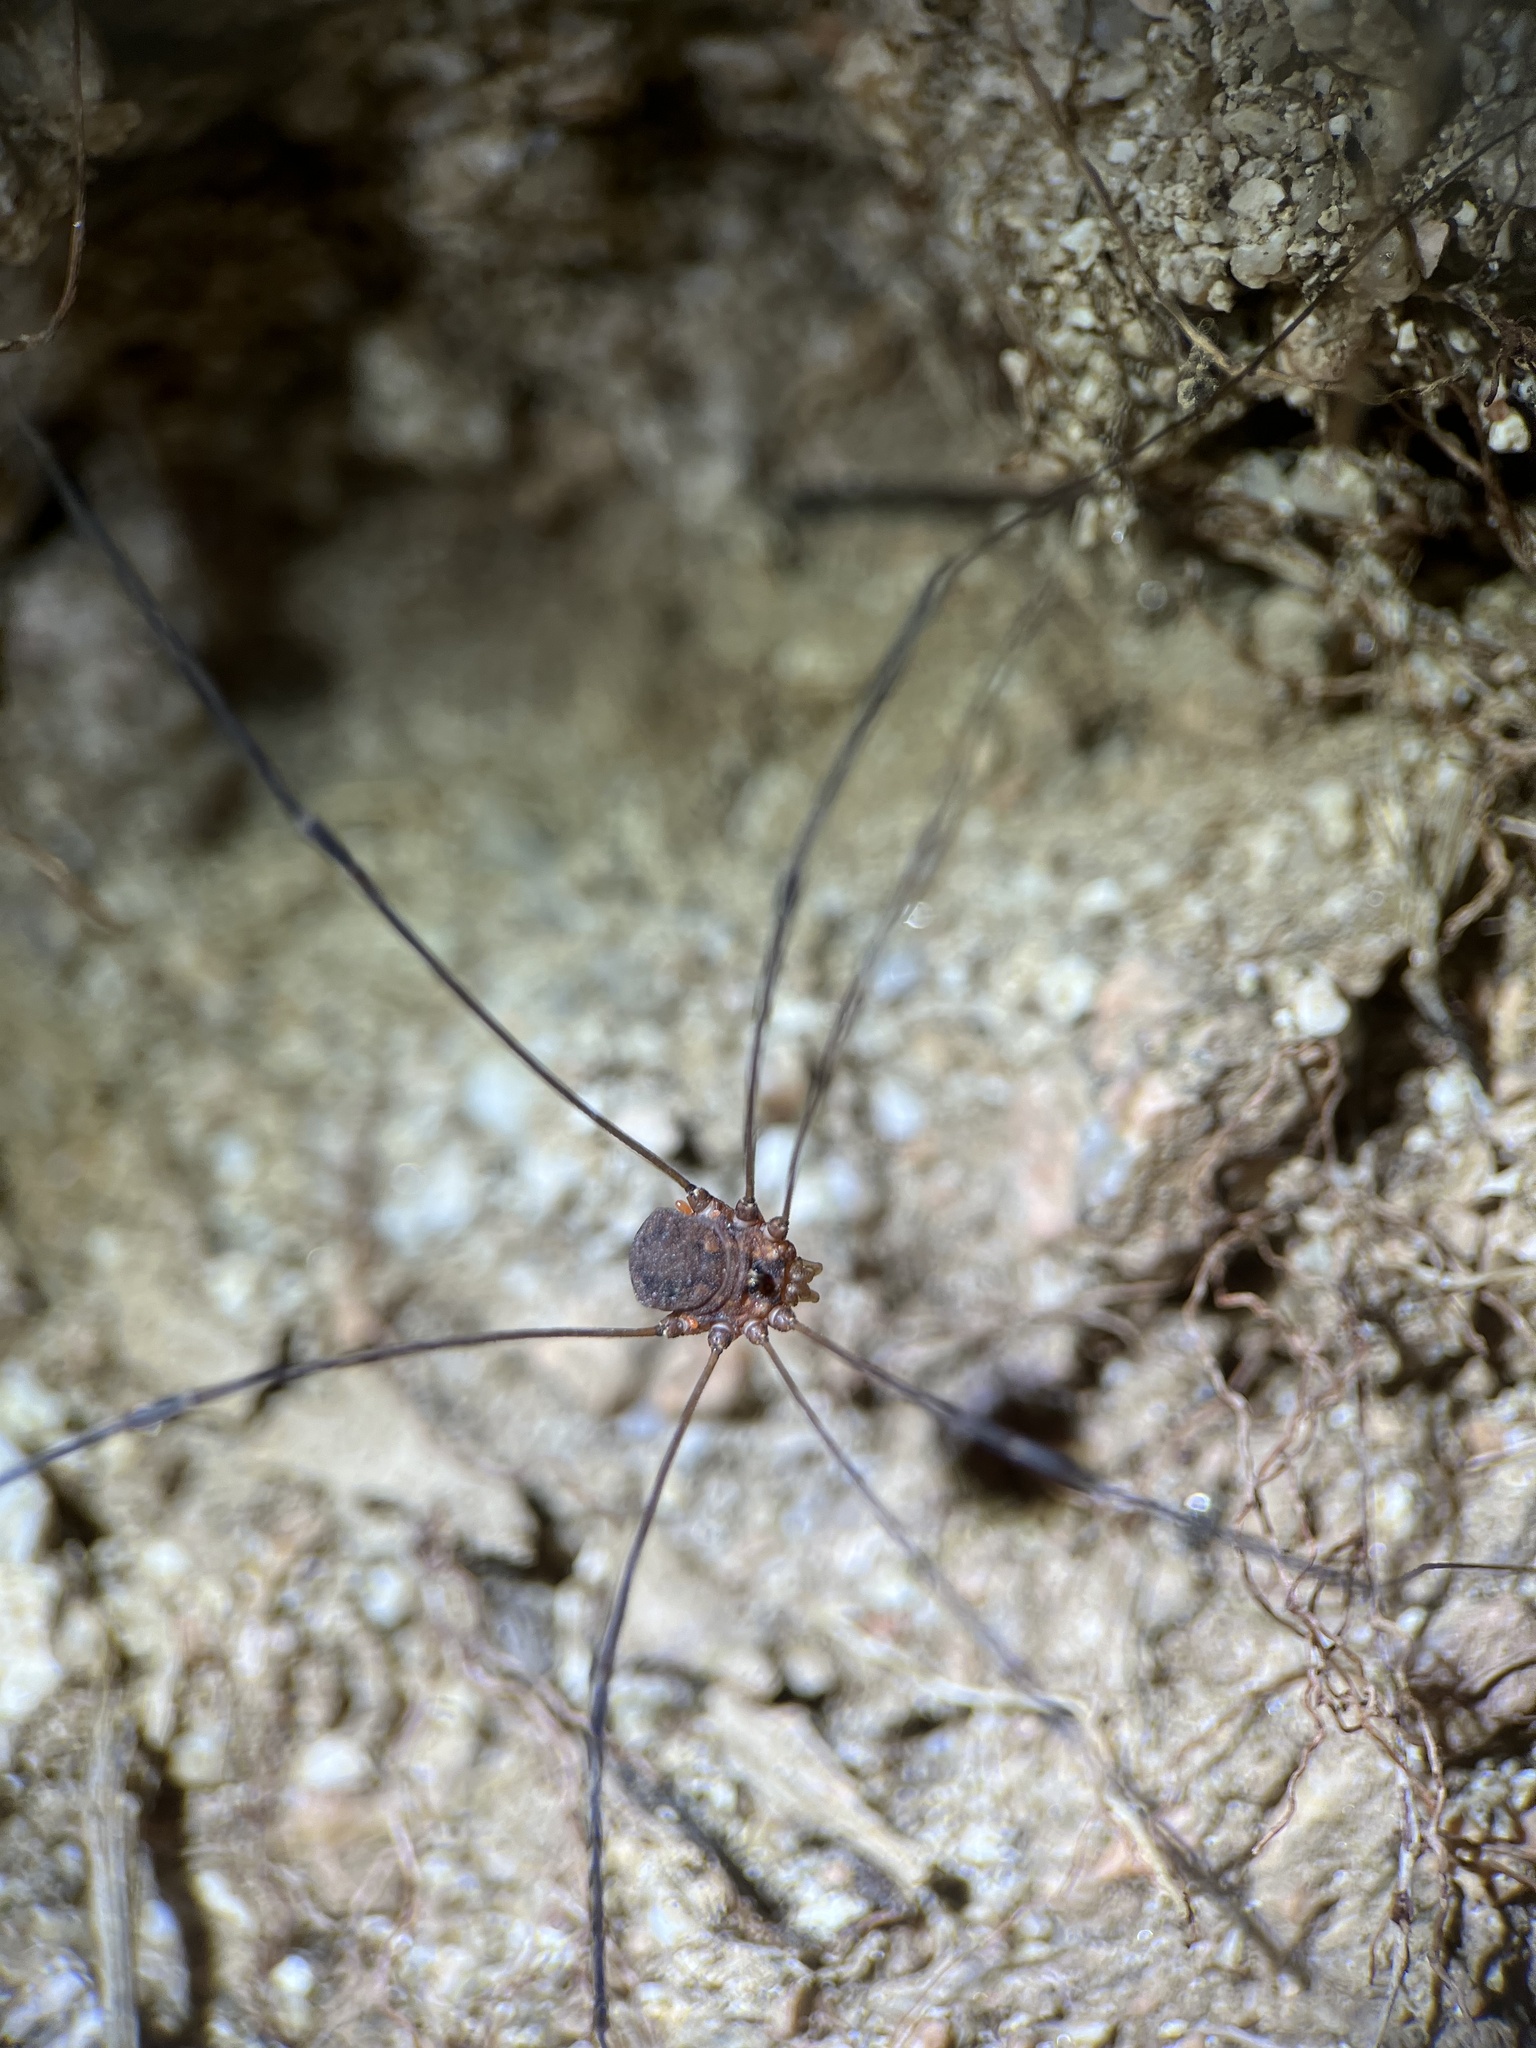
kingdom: Animalia
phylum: Arthropoda
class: Arachnida
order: Opiliones
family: Sclerosomatidae
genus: Leiobunum
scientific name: Leiobunum escondidum
